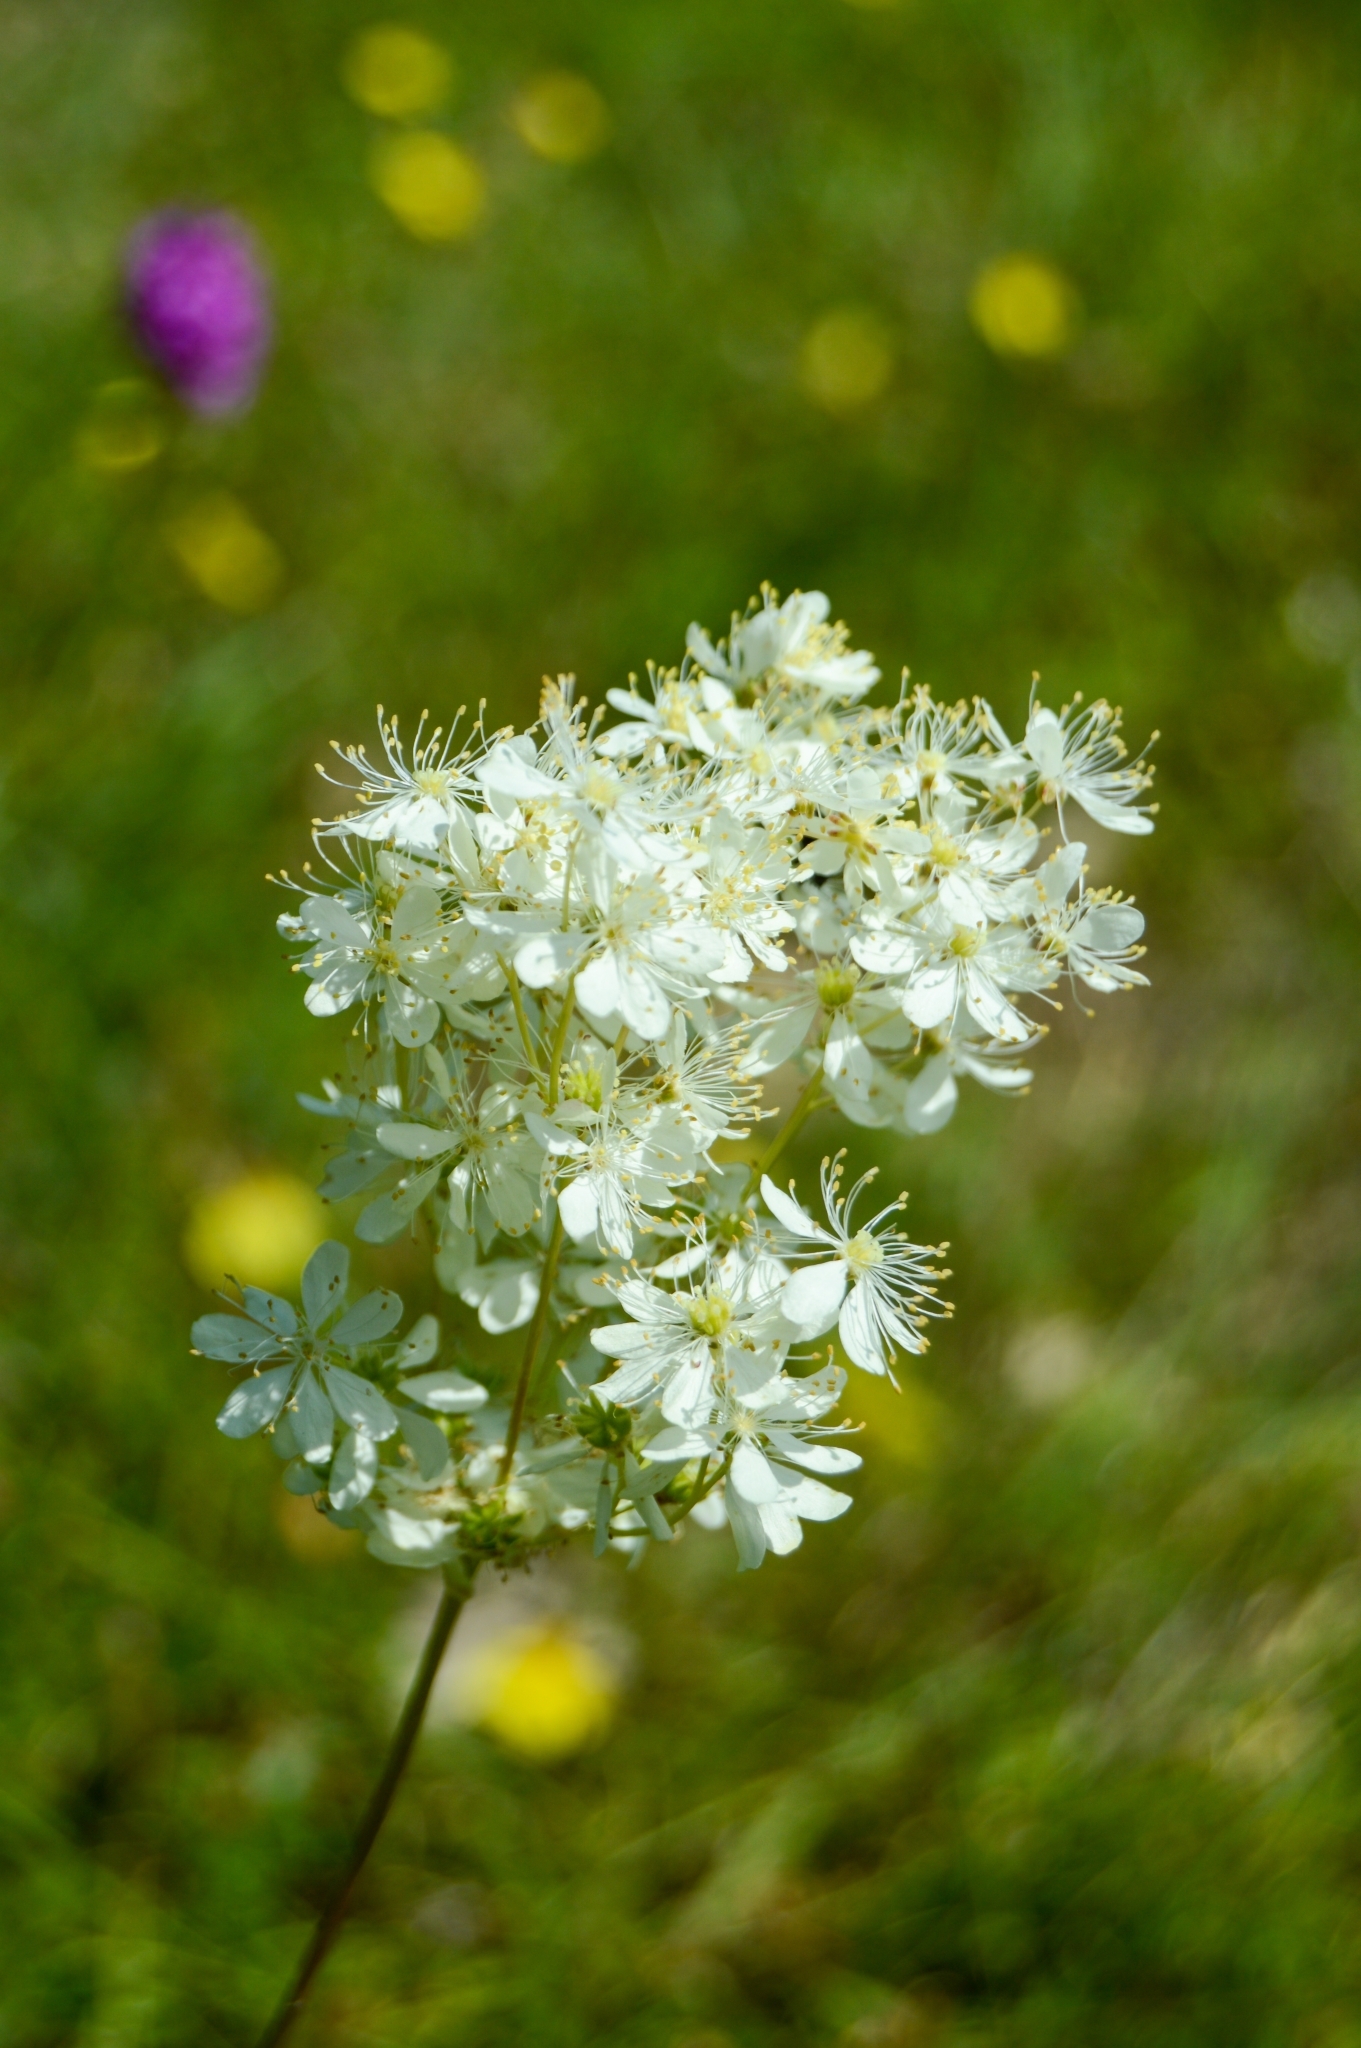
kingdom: Plantae
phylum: Tracheophyta
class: Magnoliopsida
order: Rosales
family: Rosaceae
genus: Filipendula
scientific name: Filipendula vulgaris
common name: Dropwort
